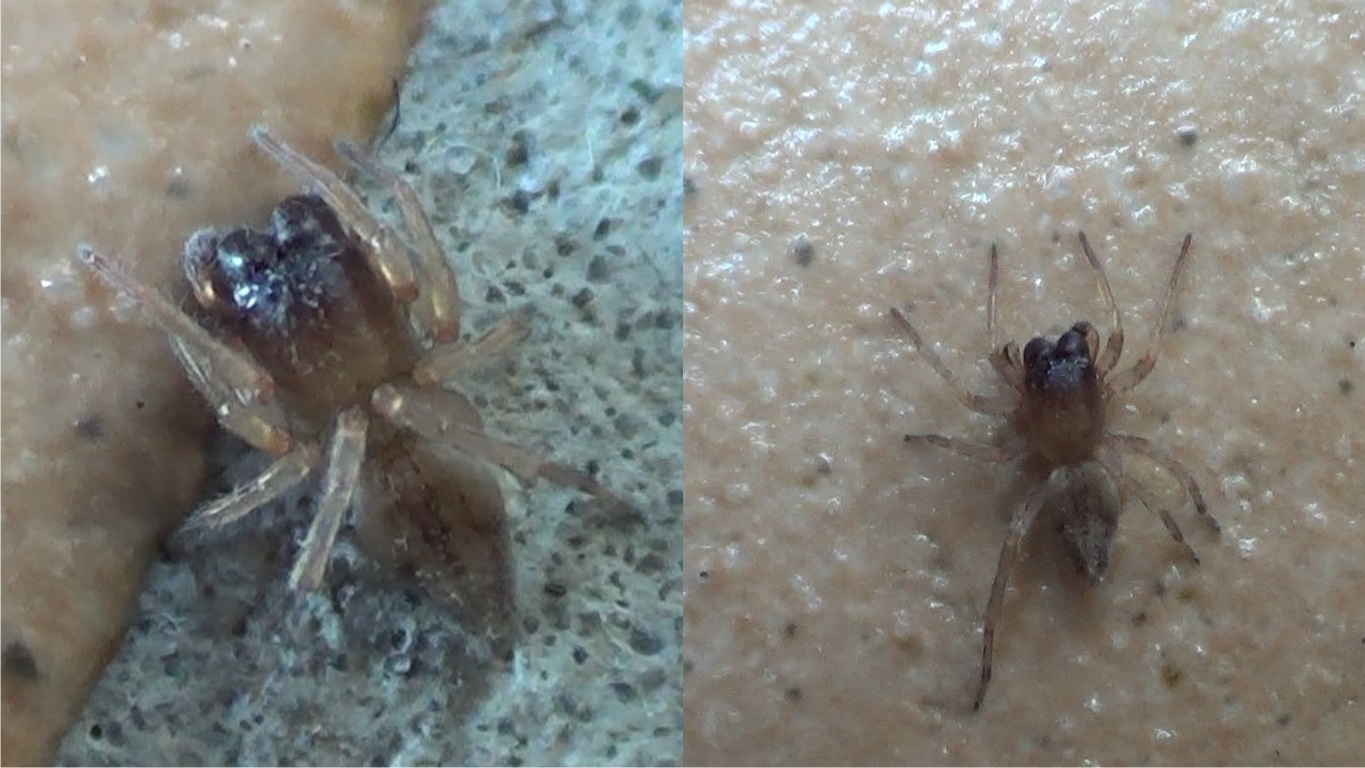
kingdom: Animalia
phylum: Arthropoda
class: Arachnida
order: Araneae
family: Clubionidae
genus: Porrhoclubiona
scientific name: Porrhoclubiona vegeta
